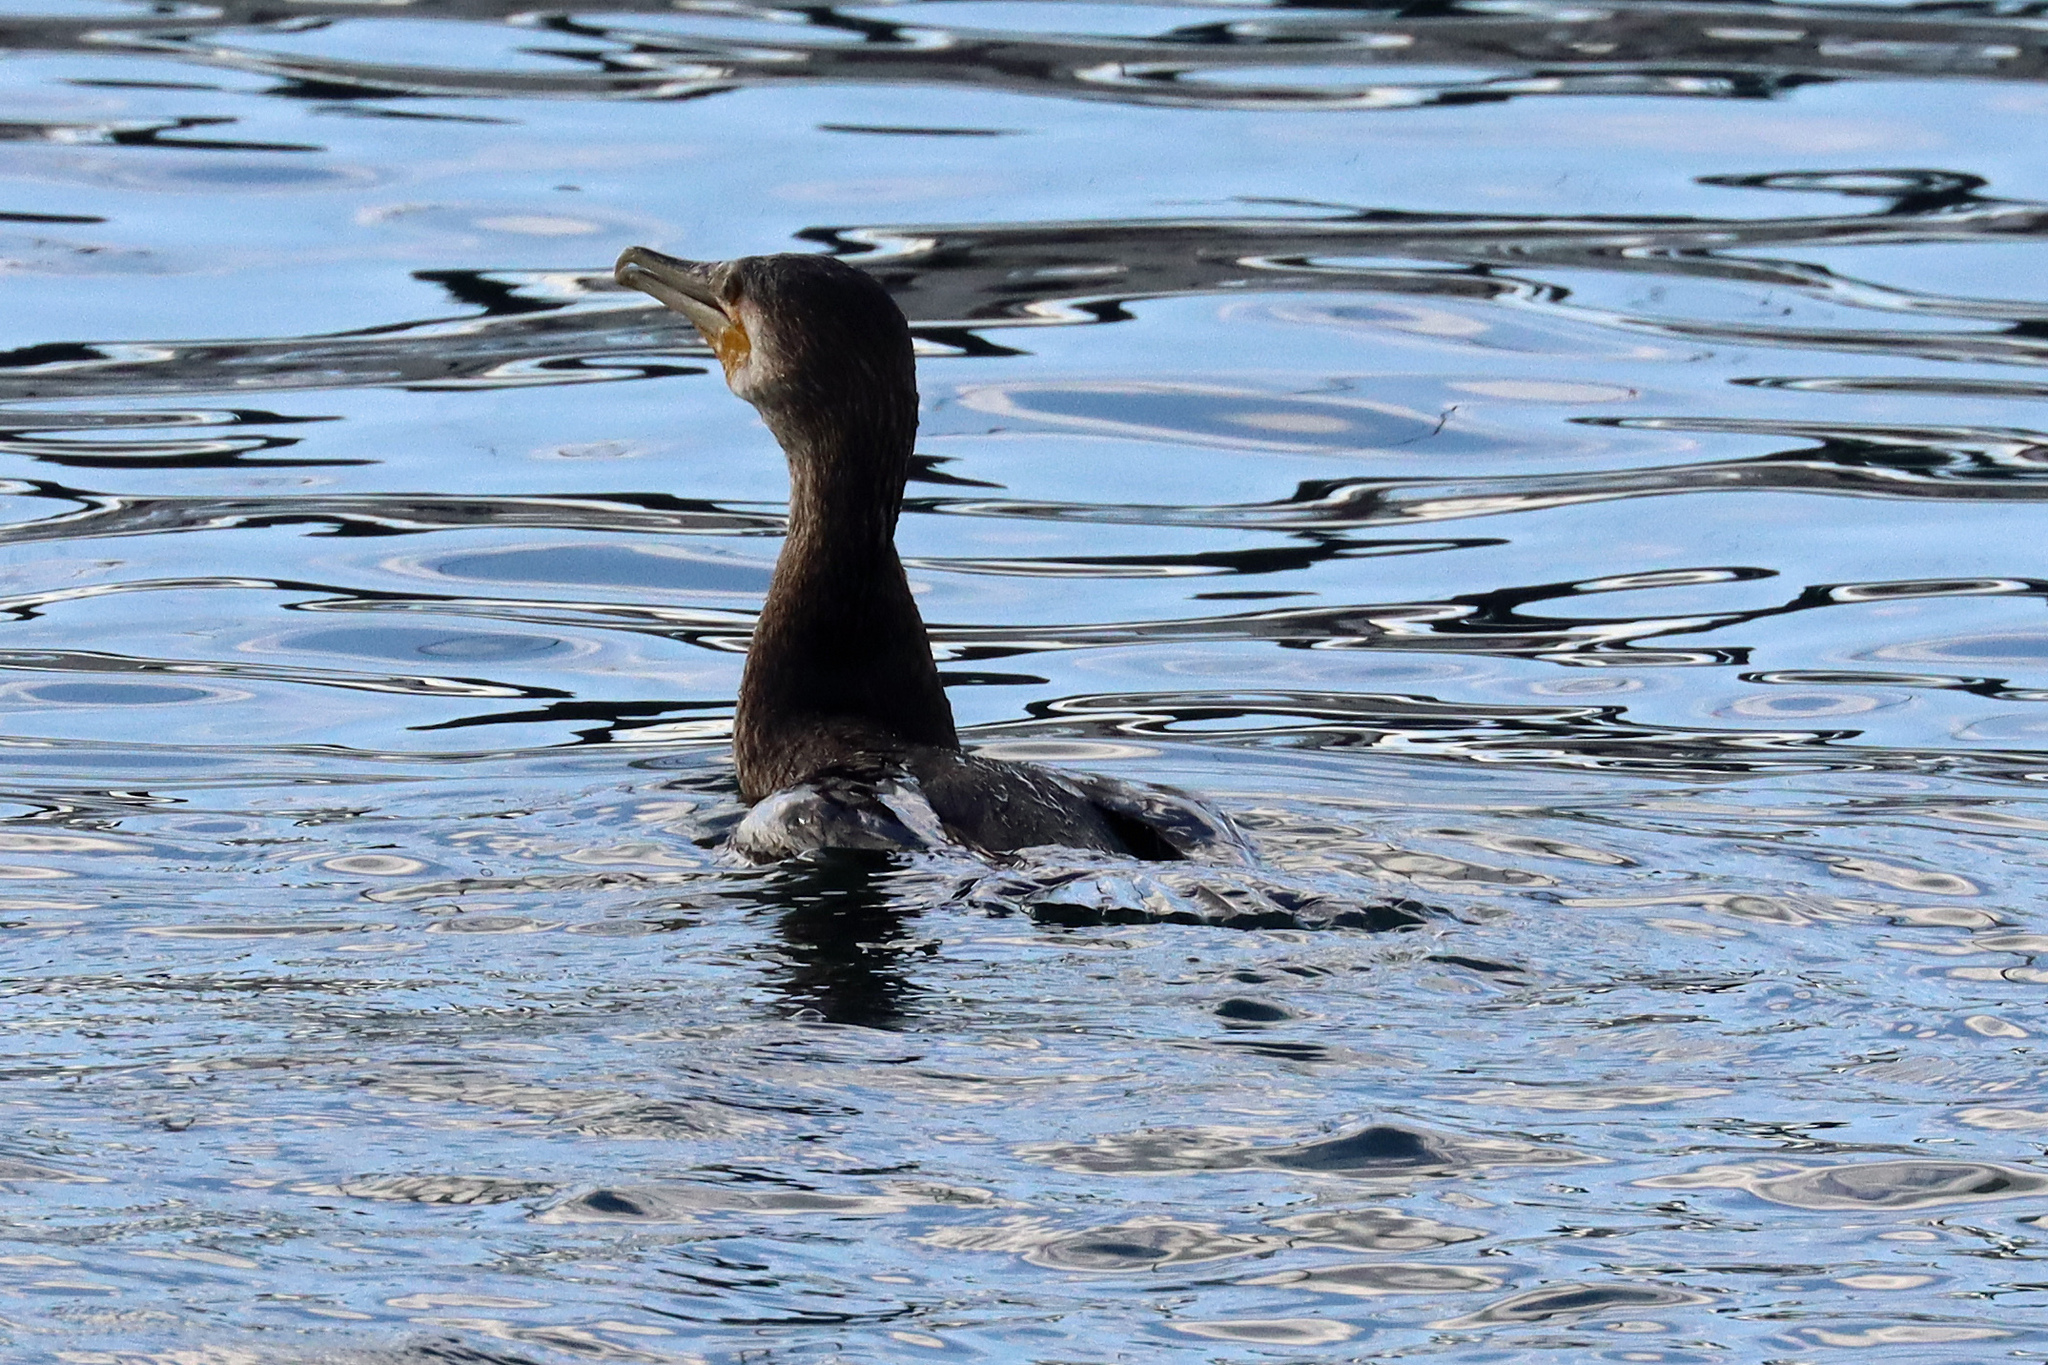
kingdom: Animalia
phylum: Chordata
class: Aves
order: Suliformes
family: Phalacrocoracidae
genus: Phalacrocorax
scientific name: Phalacrocorax carbo
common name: Great cormorant
